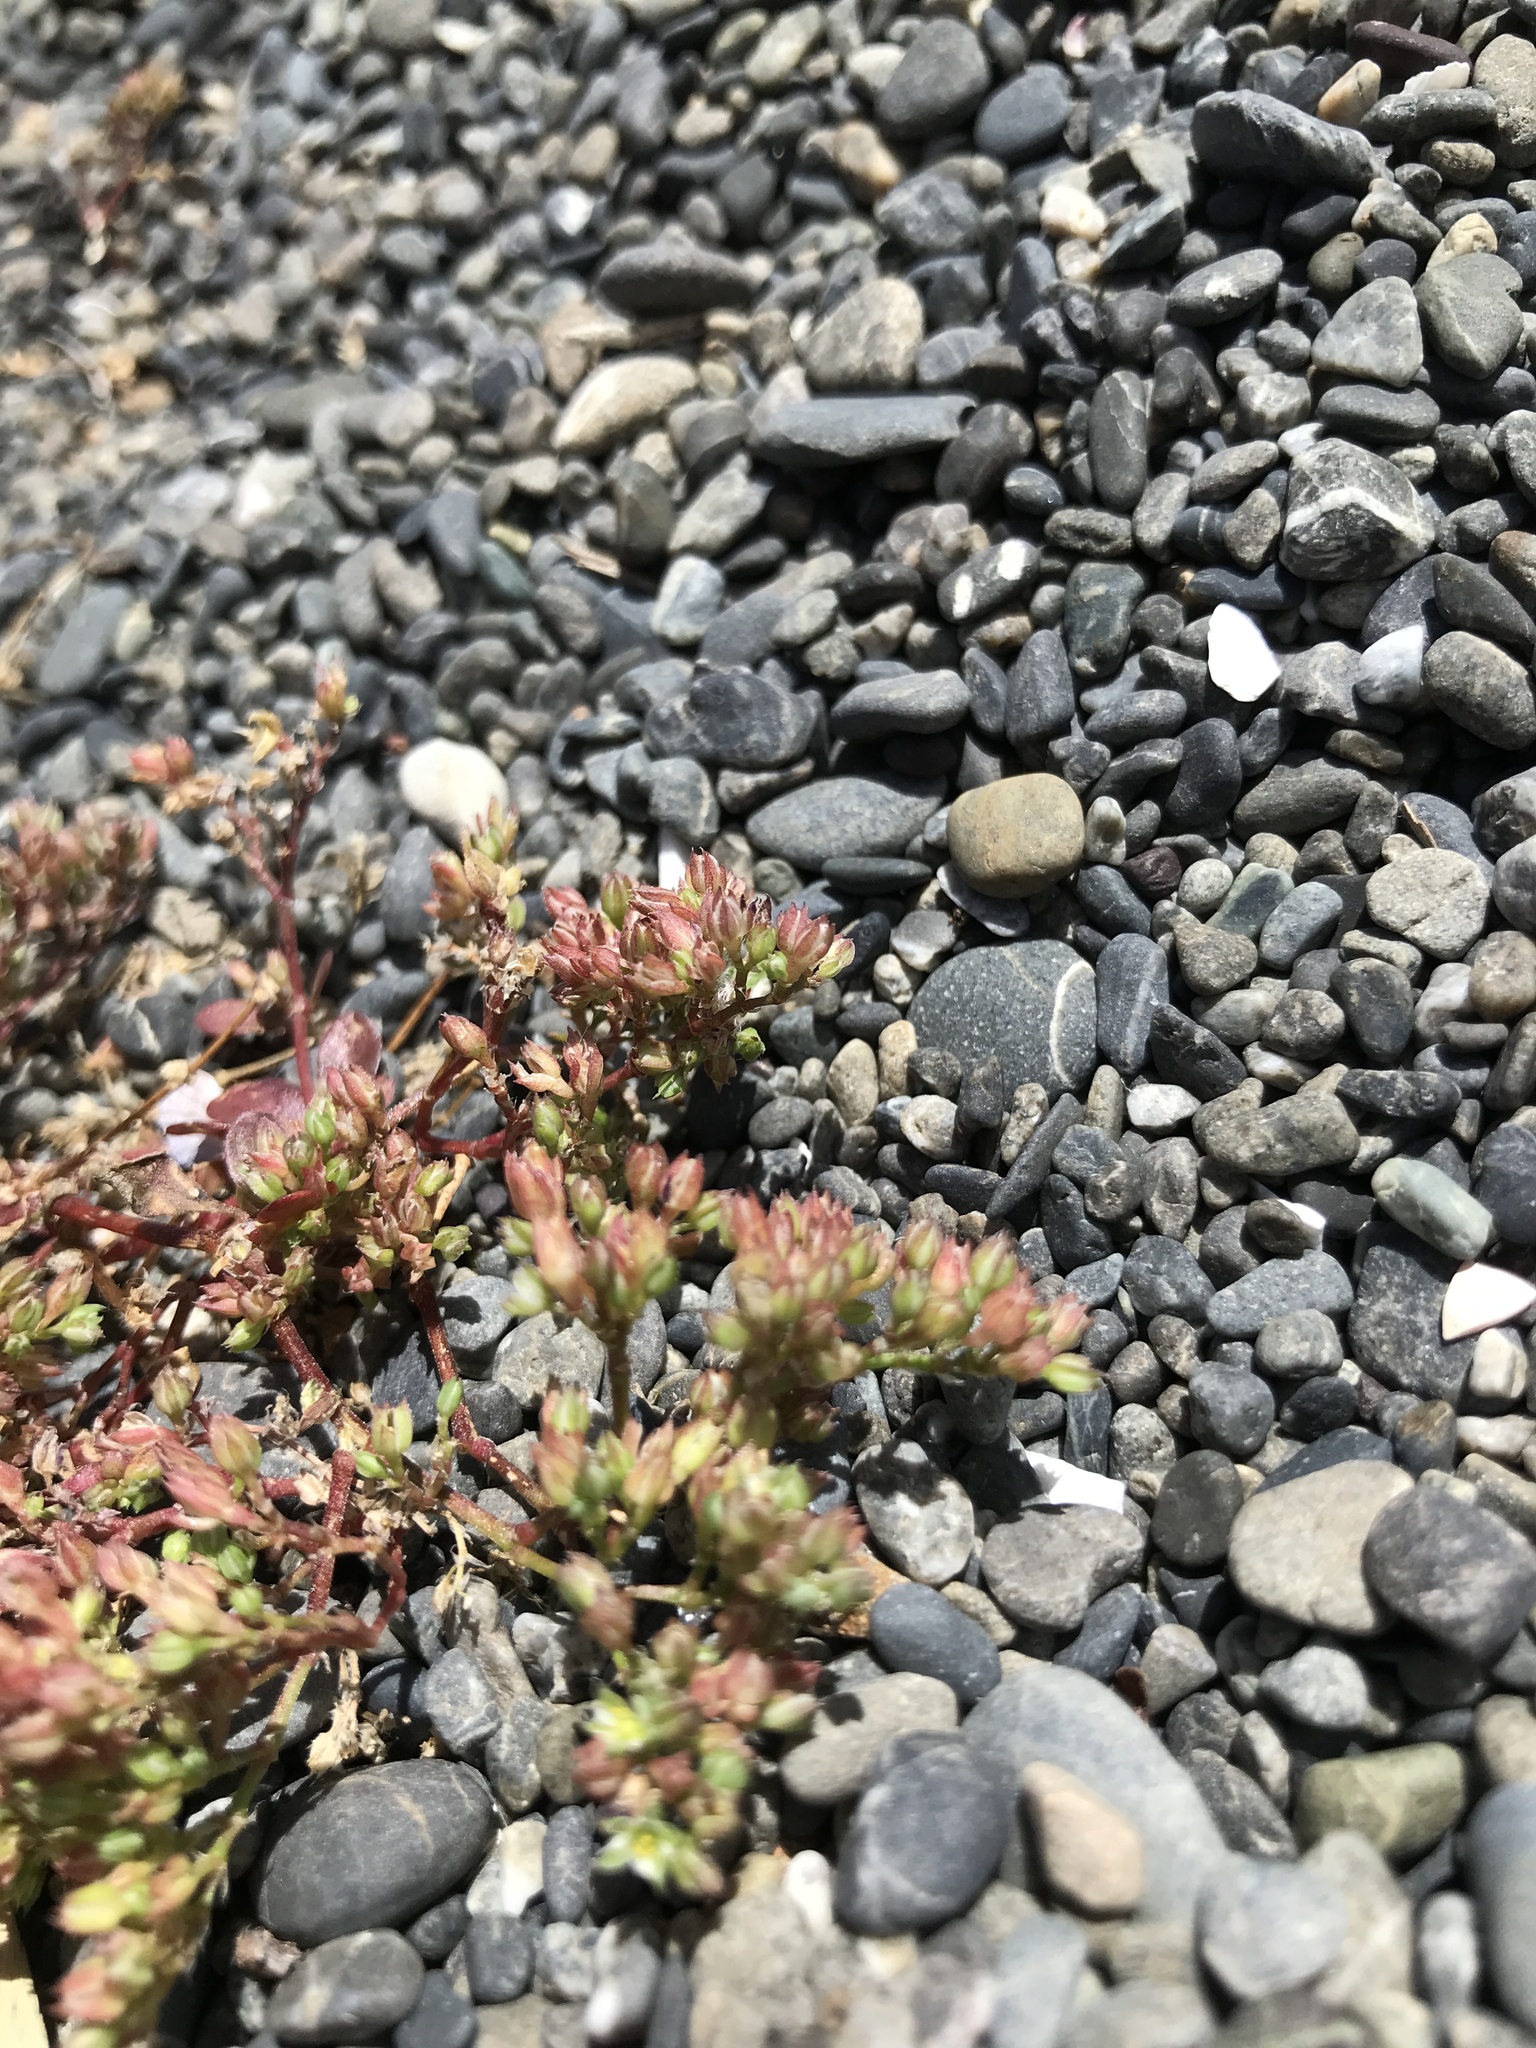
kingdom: Plantae
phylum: Tracheophyta
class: Magnoliopsida
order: Caryophyllales
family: Caryophyllaceae
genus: Polycarpon
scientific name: Polycarpon tetraphyllum
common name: Four-leaved all-seed
